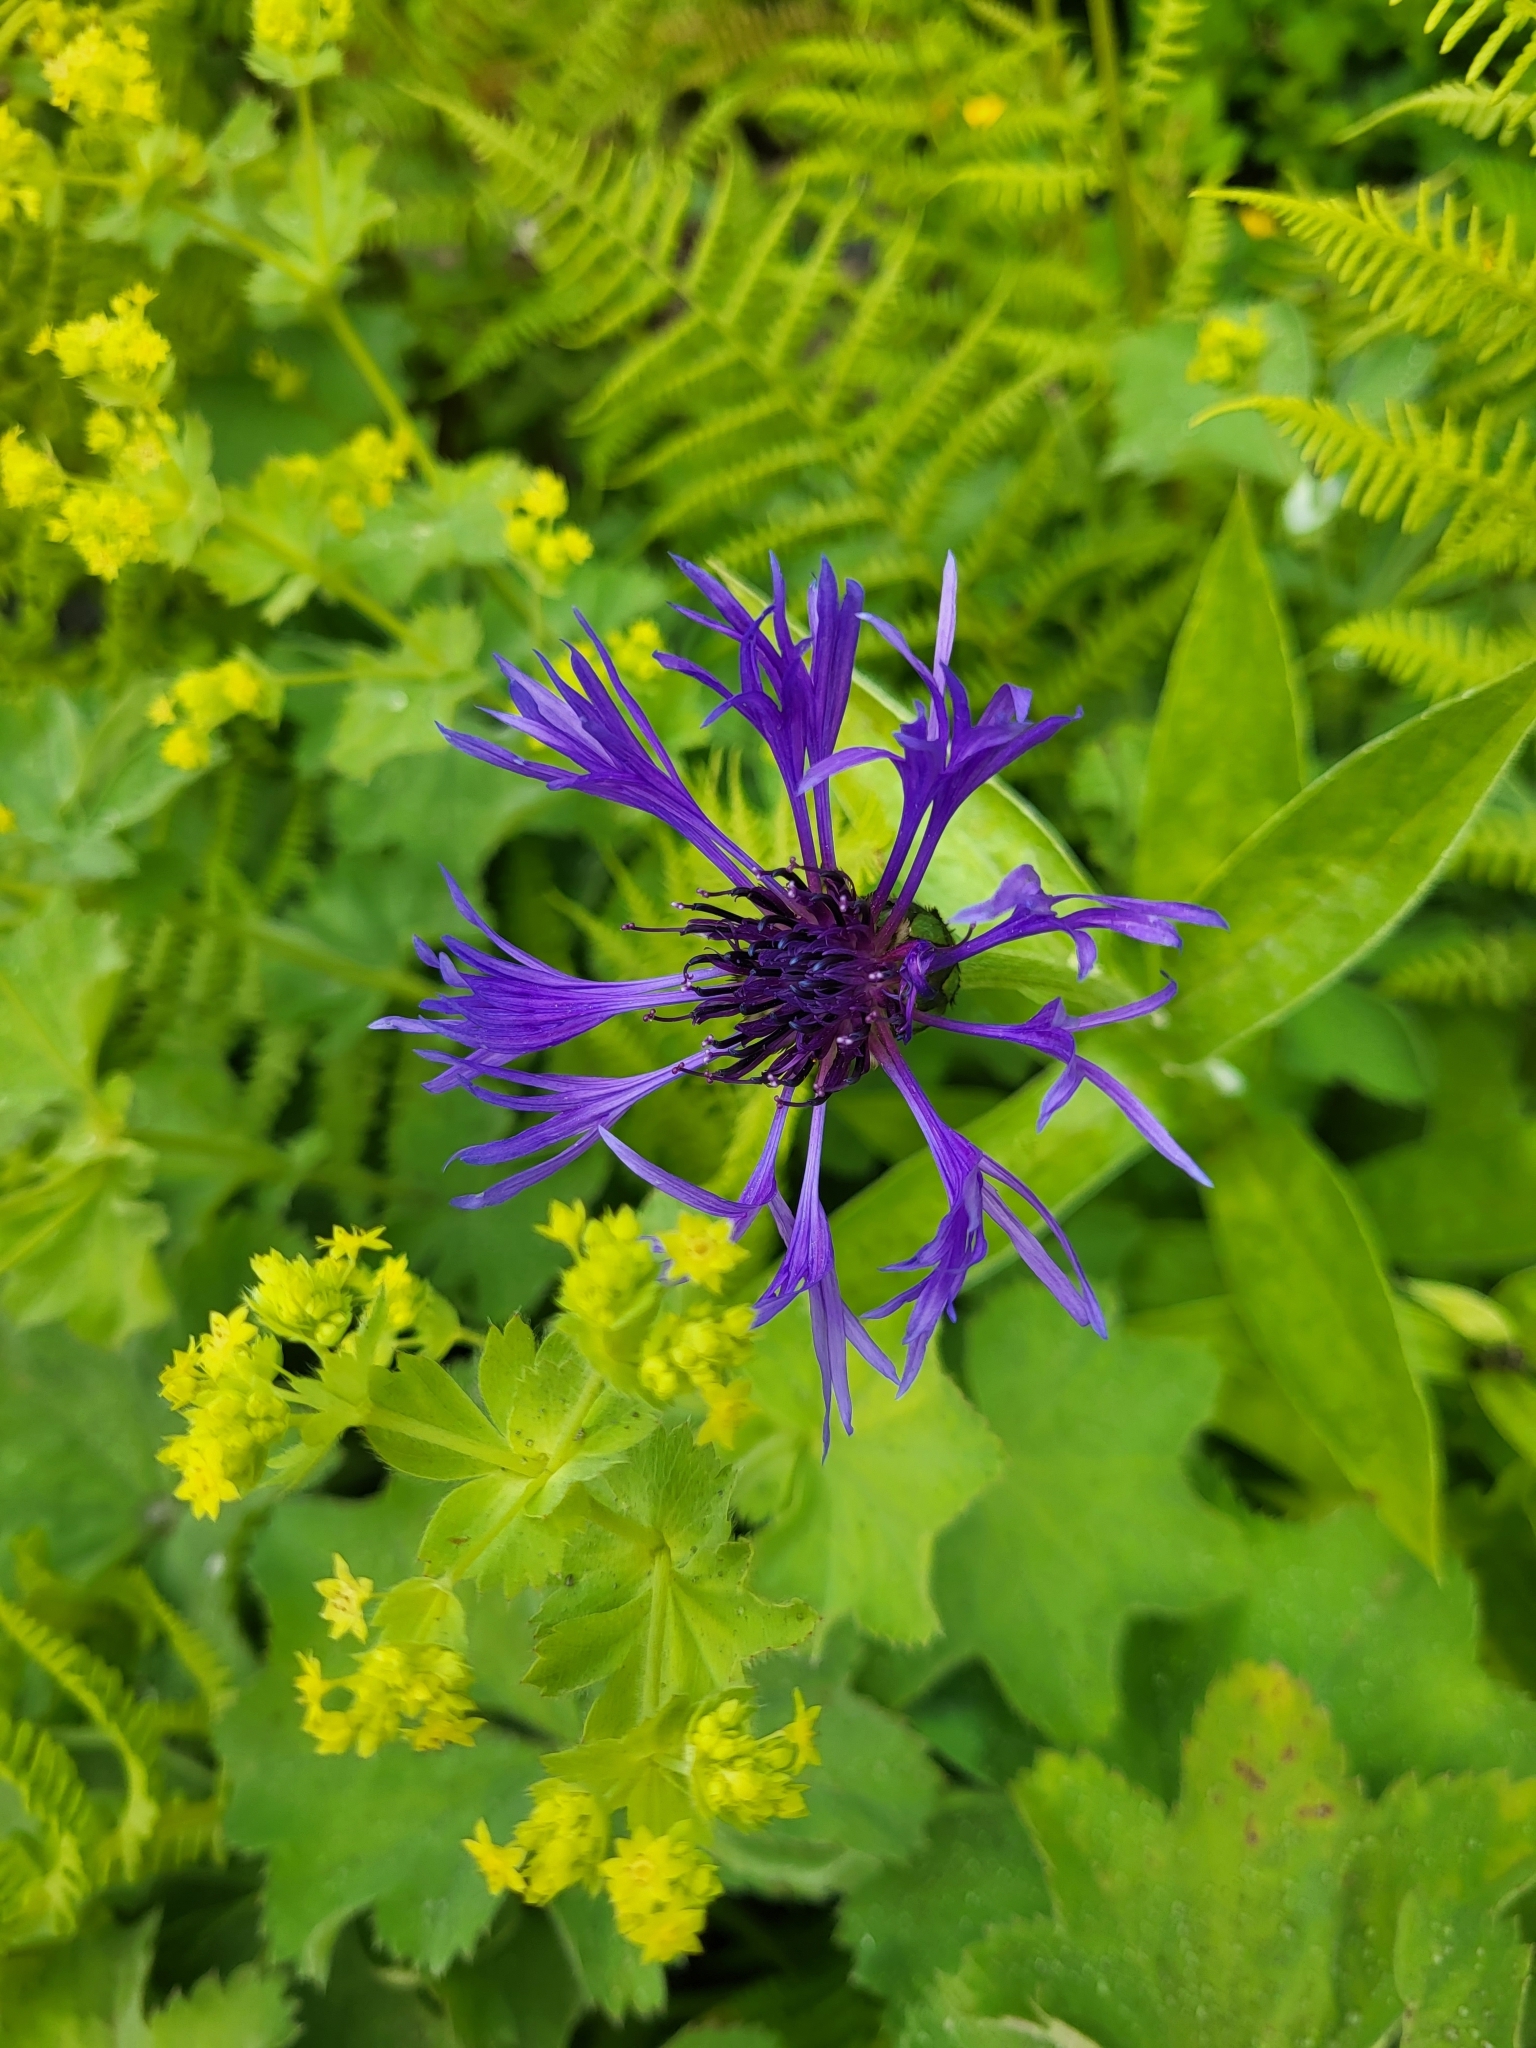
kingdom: Plantae
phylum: Tracheophyta
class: Magnoliopsida
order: Asterales
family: Asteraceae
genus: Centaurea
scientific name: Centaurea montana
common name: Perennial cornflower
